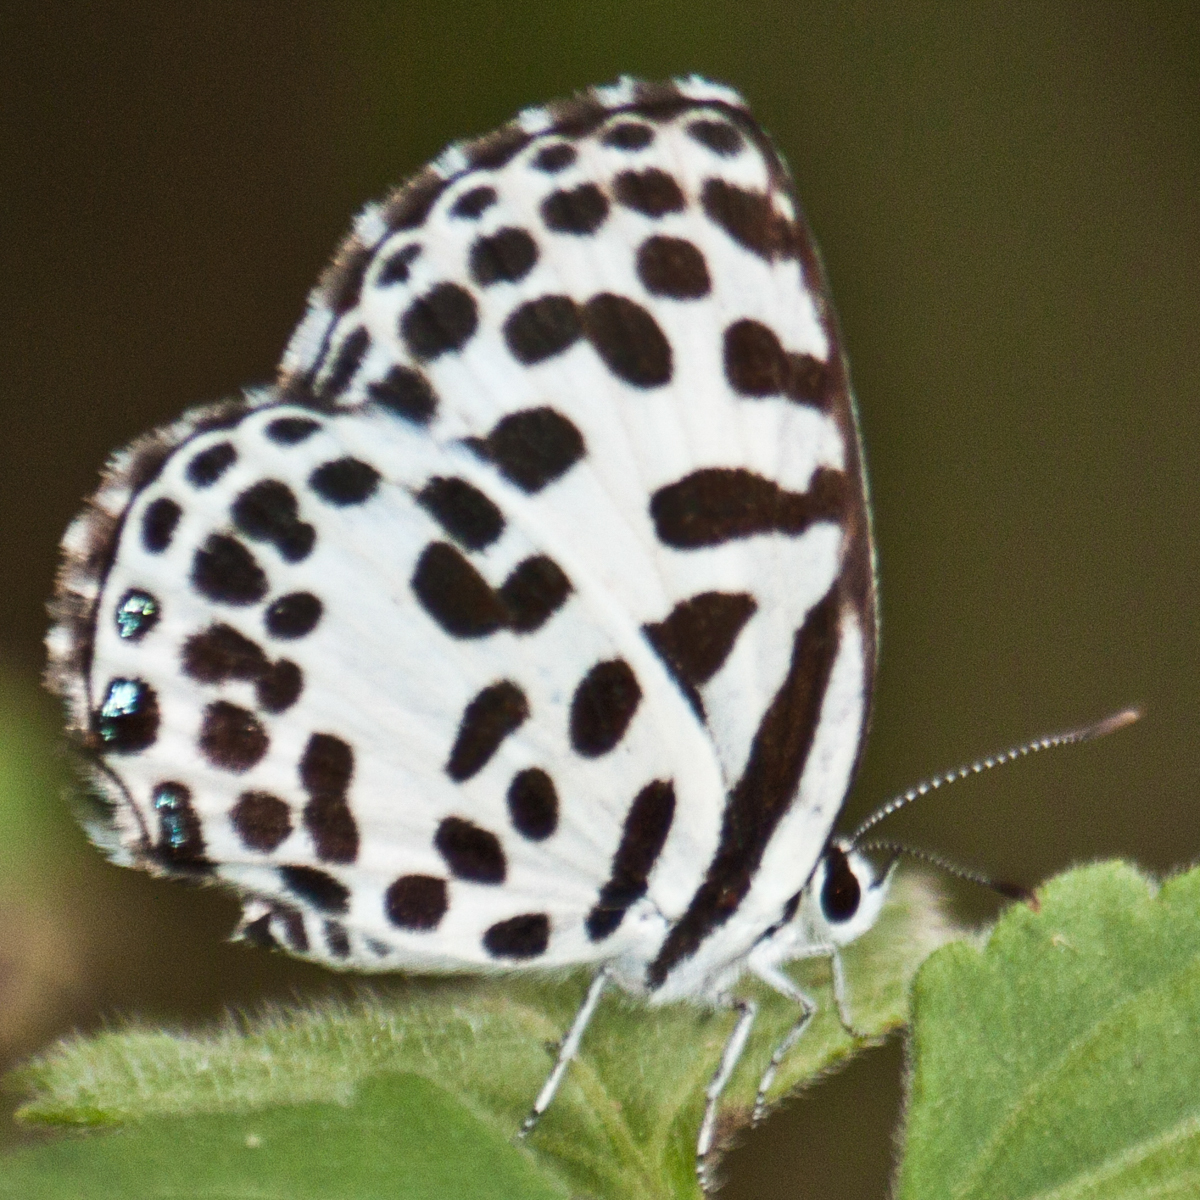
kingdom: Animalia
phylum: Arthropoda
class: Insecta
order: Lepidoptera
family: Lycaenidae
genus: Castalius
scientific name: Castalius rosimon
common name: Common pierrot
